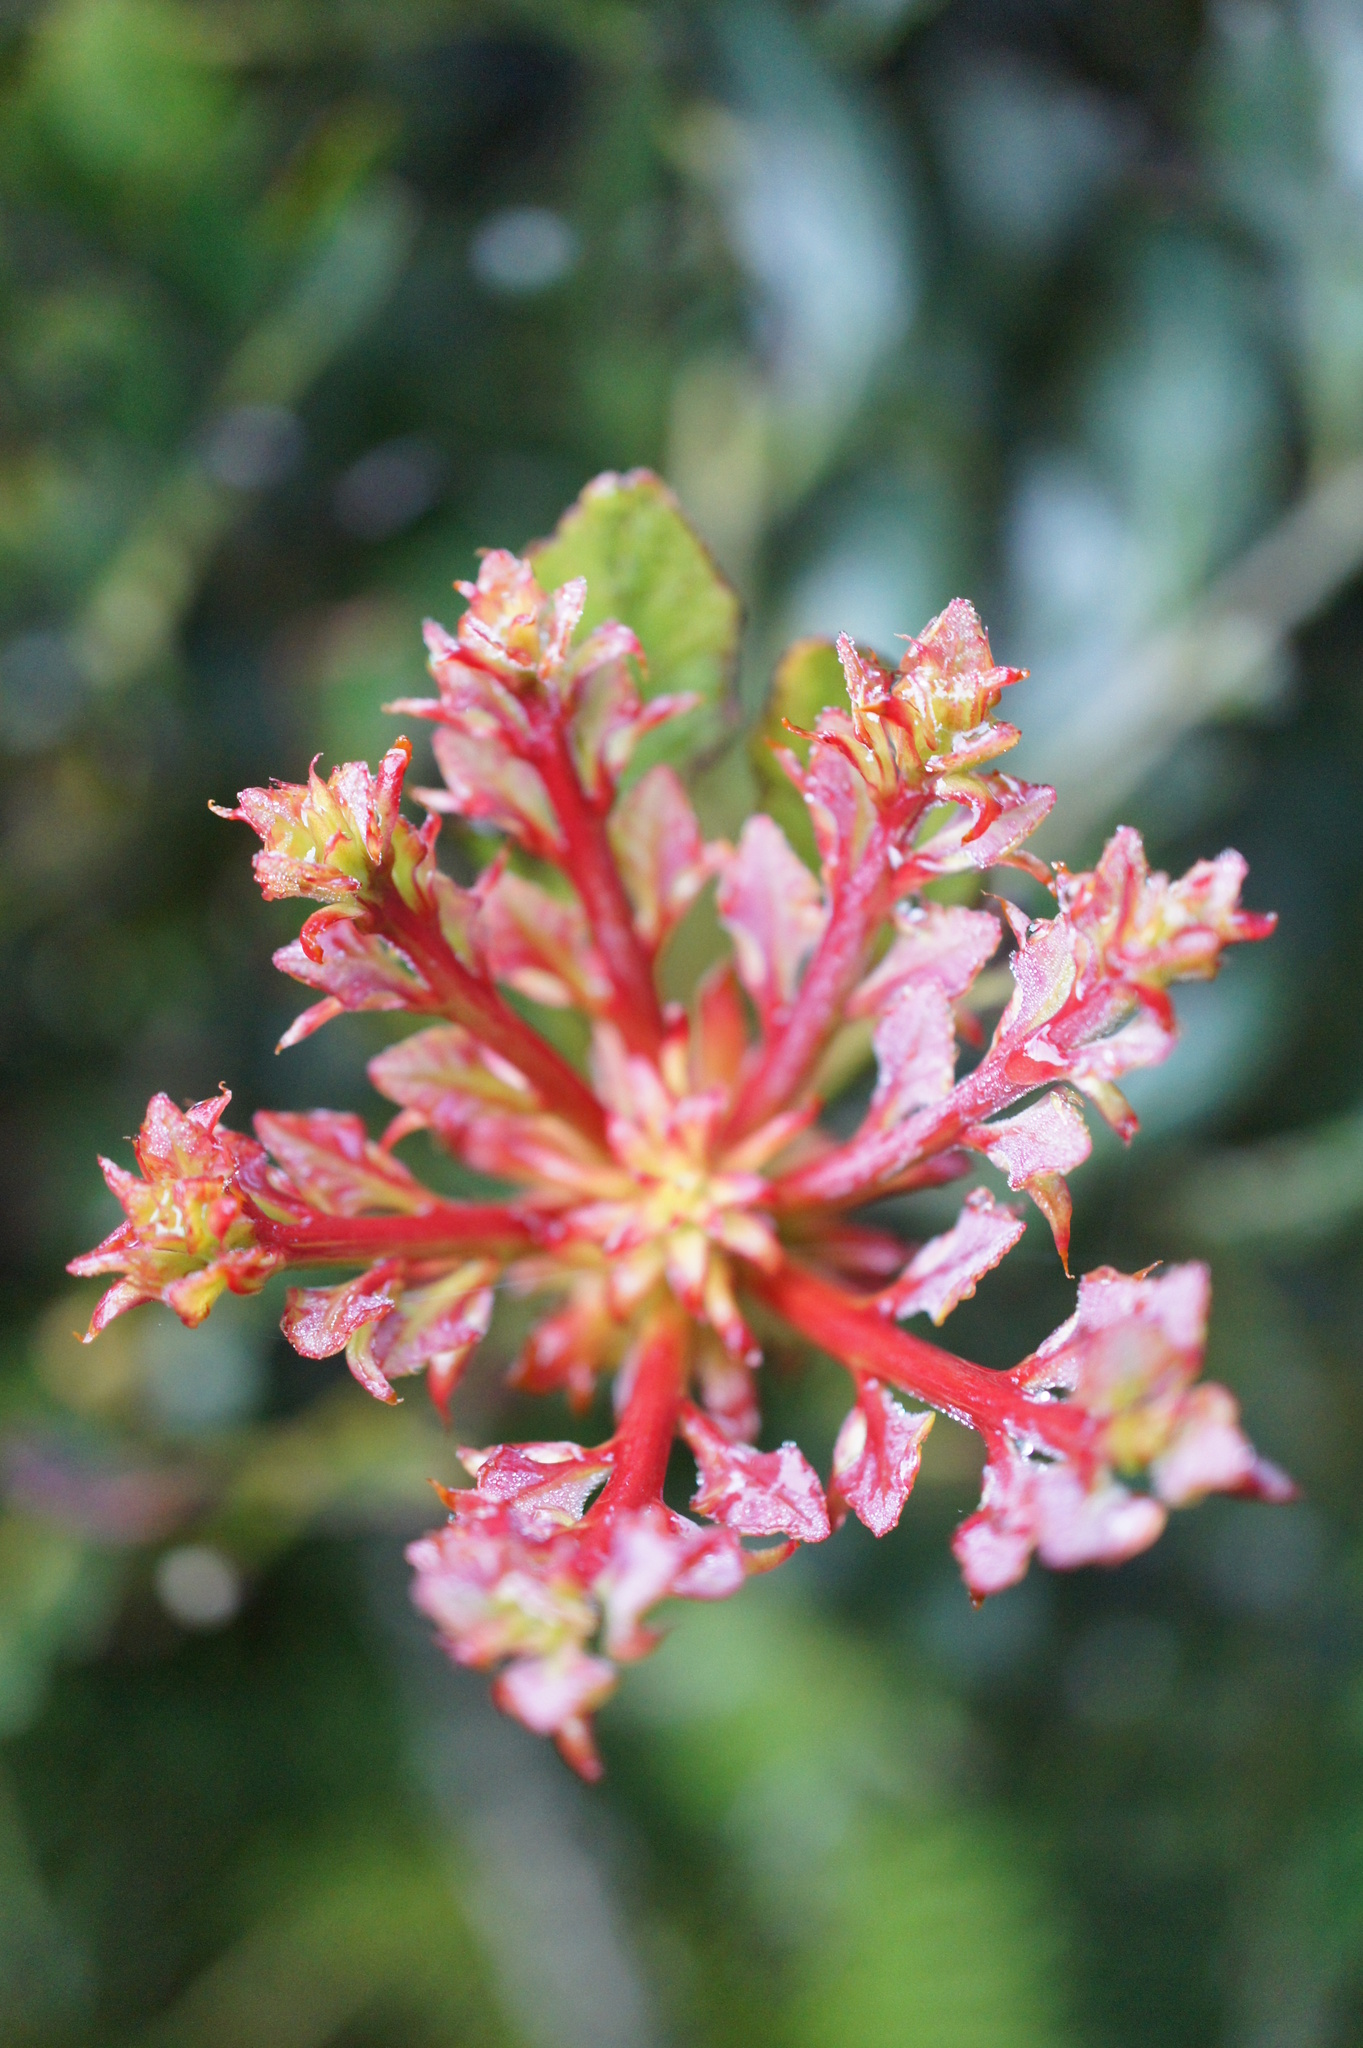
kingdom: Plantae
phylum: Tracheophyta
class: Pinopsida
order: Pinales
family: Phyllocladaceae
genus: Phyllocladus
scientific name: Phyllocladus hypophyllus
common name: Celery pine
